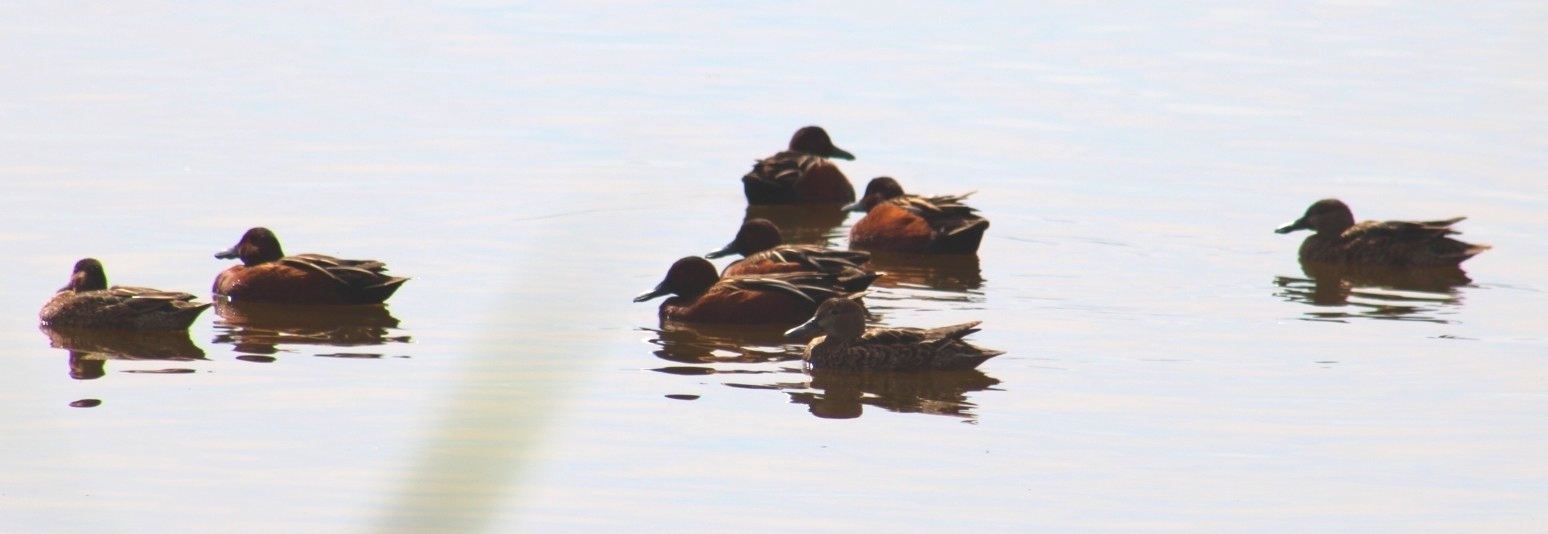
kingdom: Animalia
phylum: Chordata
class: Aves
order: Anseriformes
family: Anatidae
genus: Spatula
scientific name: Spatula cyanoptera
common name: Cinnamon teal
